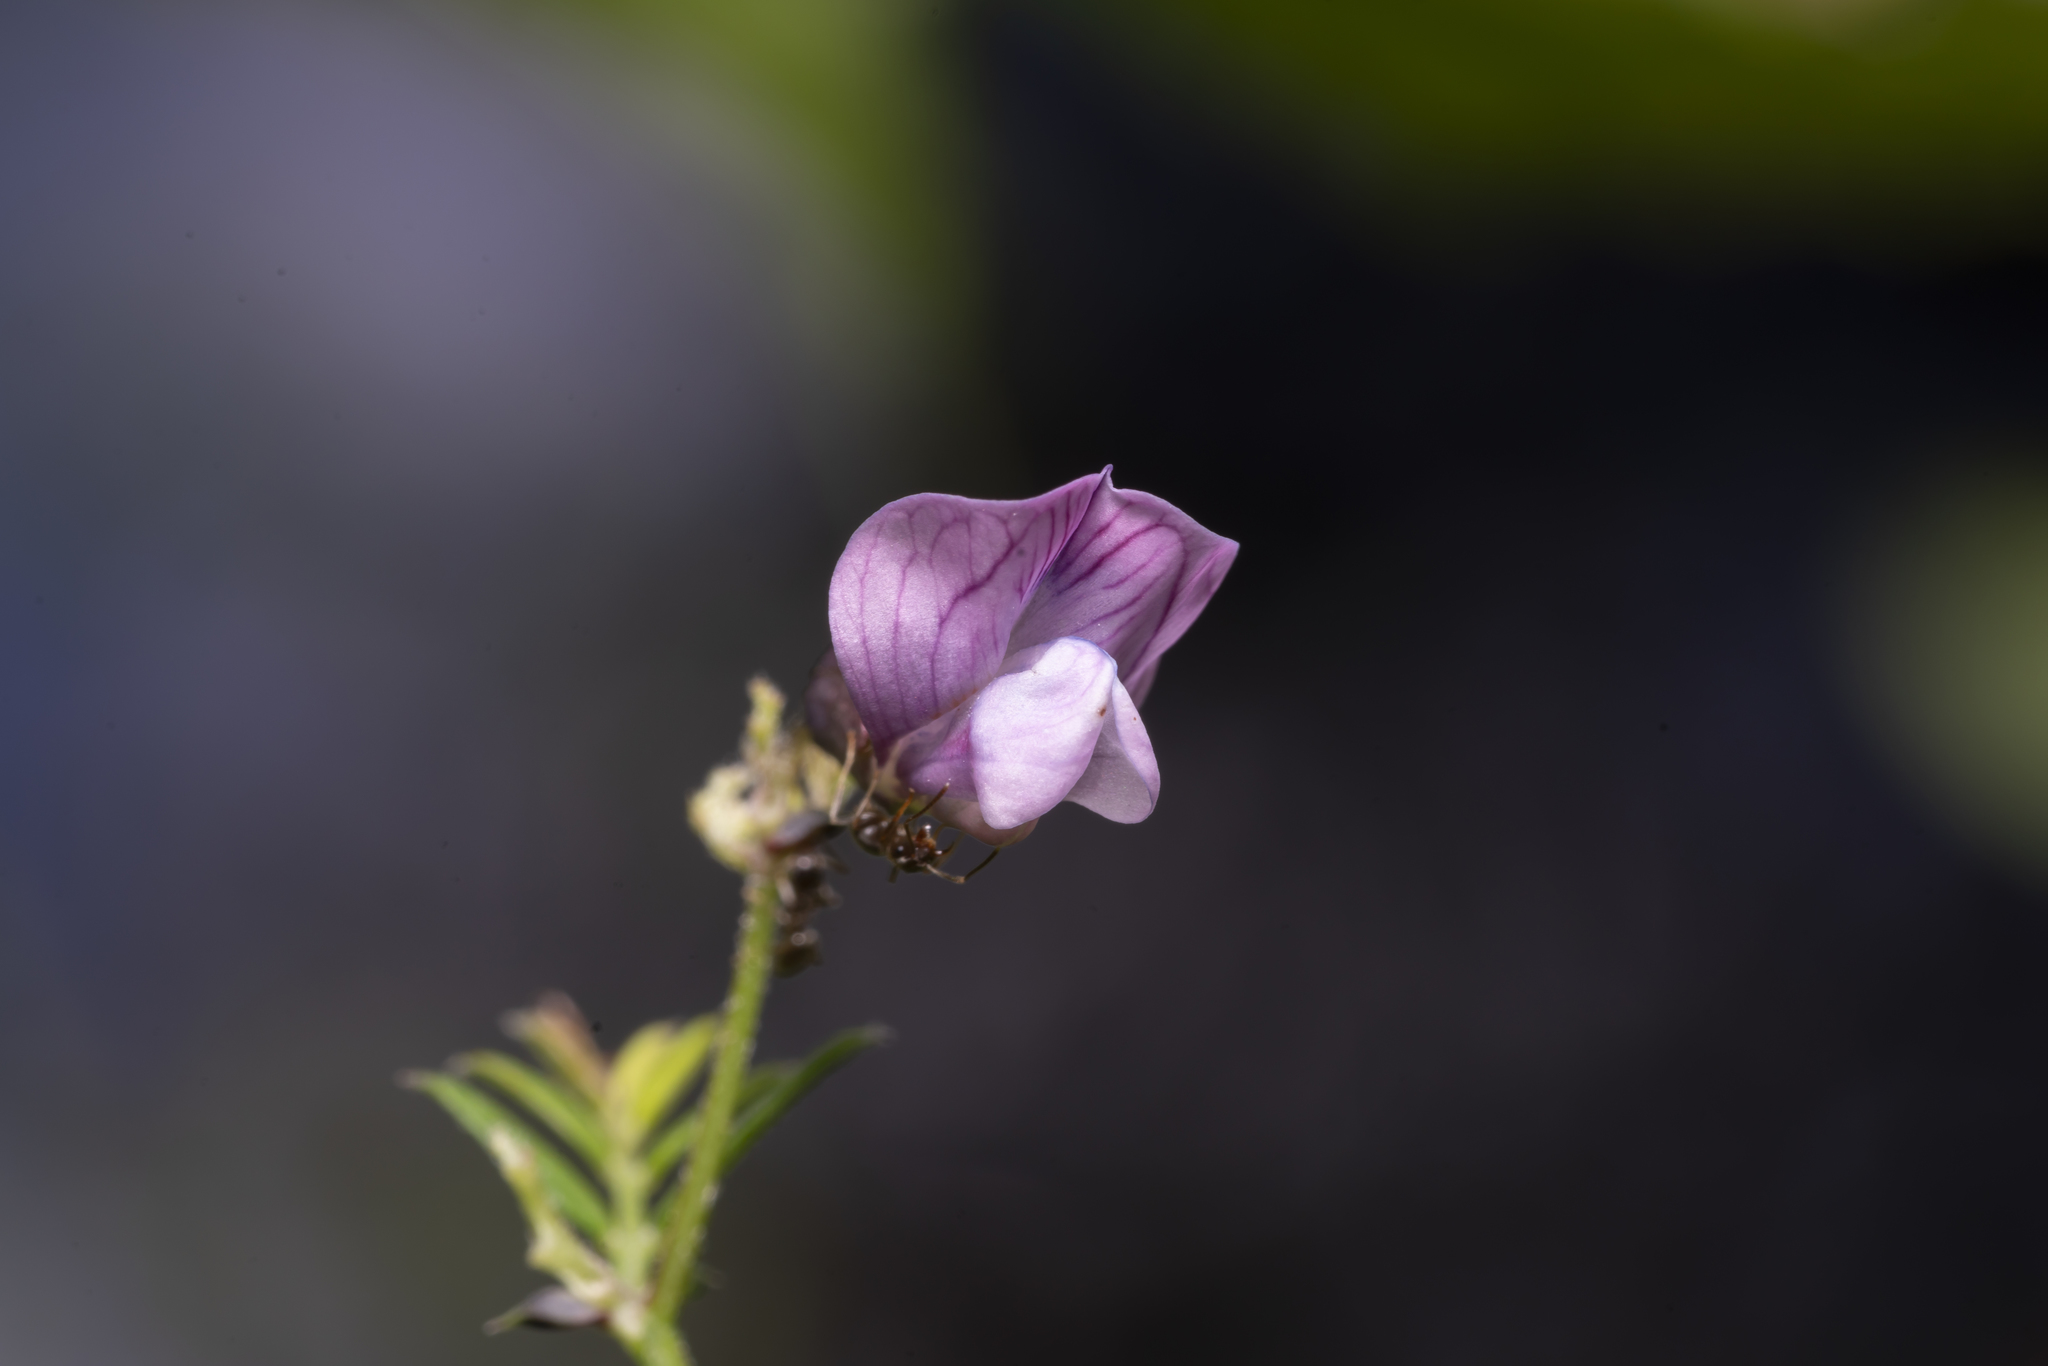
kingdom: Plantae
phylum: Tracheophyta
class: Magnoliopsida
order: Fabales
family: Fabaceae
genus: Vicia
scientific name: Vicia sepium
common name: Bush vetch
